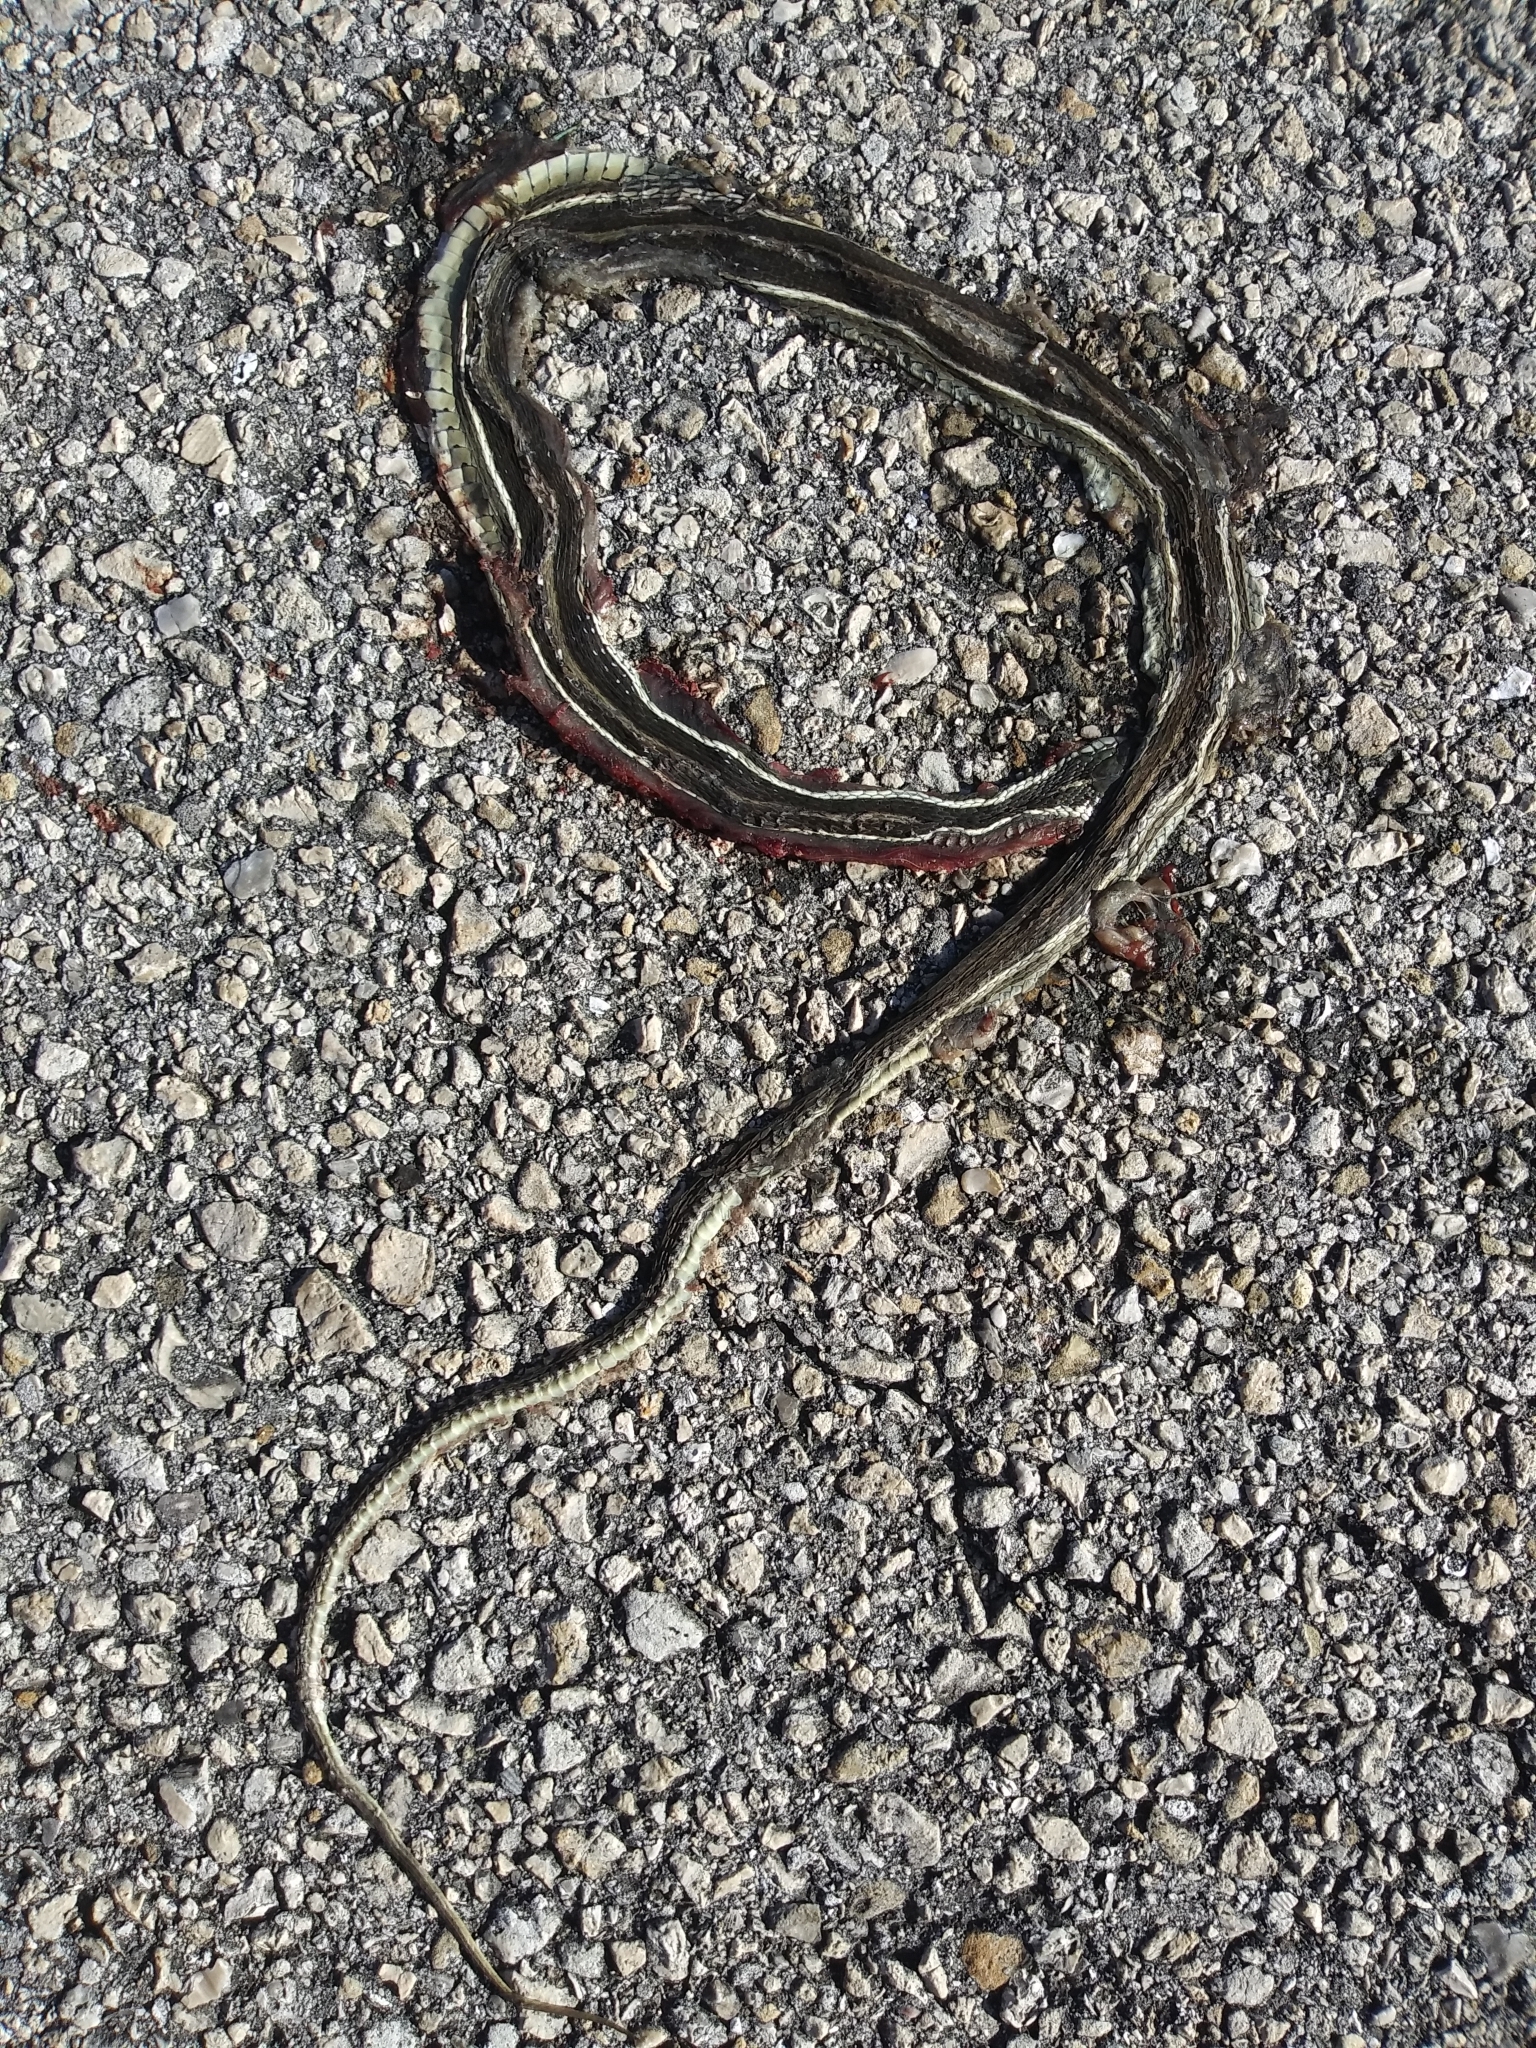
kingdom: Animalia
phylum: Chordata
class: Squamata
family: Colubridae
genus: Thamnophis
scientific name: Thamnophis saurita
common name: Eastern ribbonsnake
